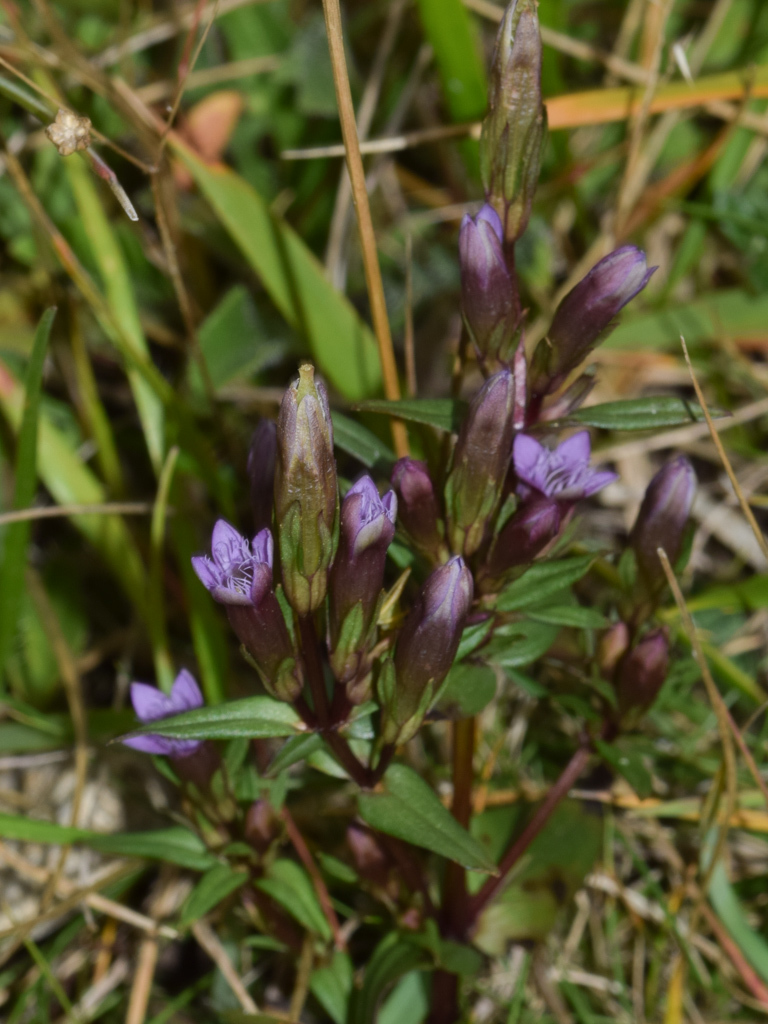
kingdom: Plantae
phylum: Tracheophyta
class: Magnoliopsida
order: Gentianales
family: Gentianaceae
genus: Gentianella
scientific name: Gentianella amarella
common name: Autumn gentian
